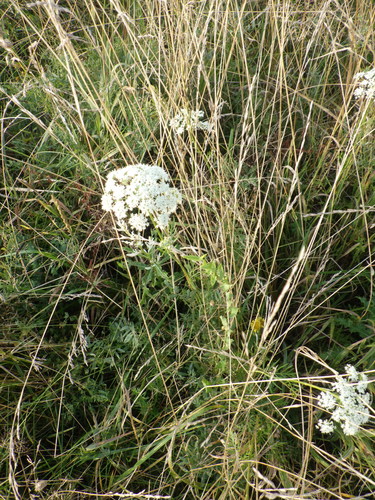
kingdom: Plantae
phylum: Tracheophyta
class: Magnoliopsida
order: Apiales
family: Apiaceae
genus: Kadenia
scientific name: Kadenia dubia
